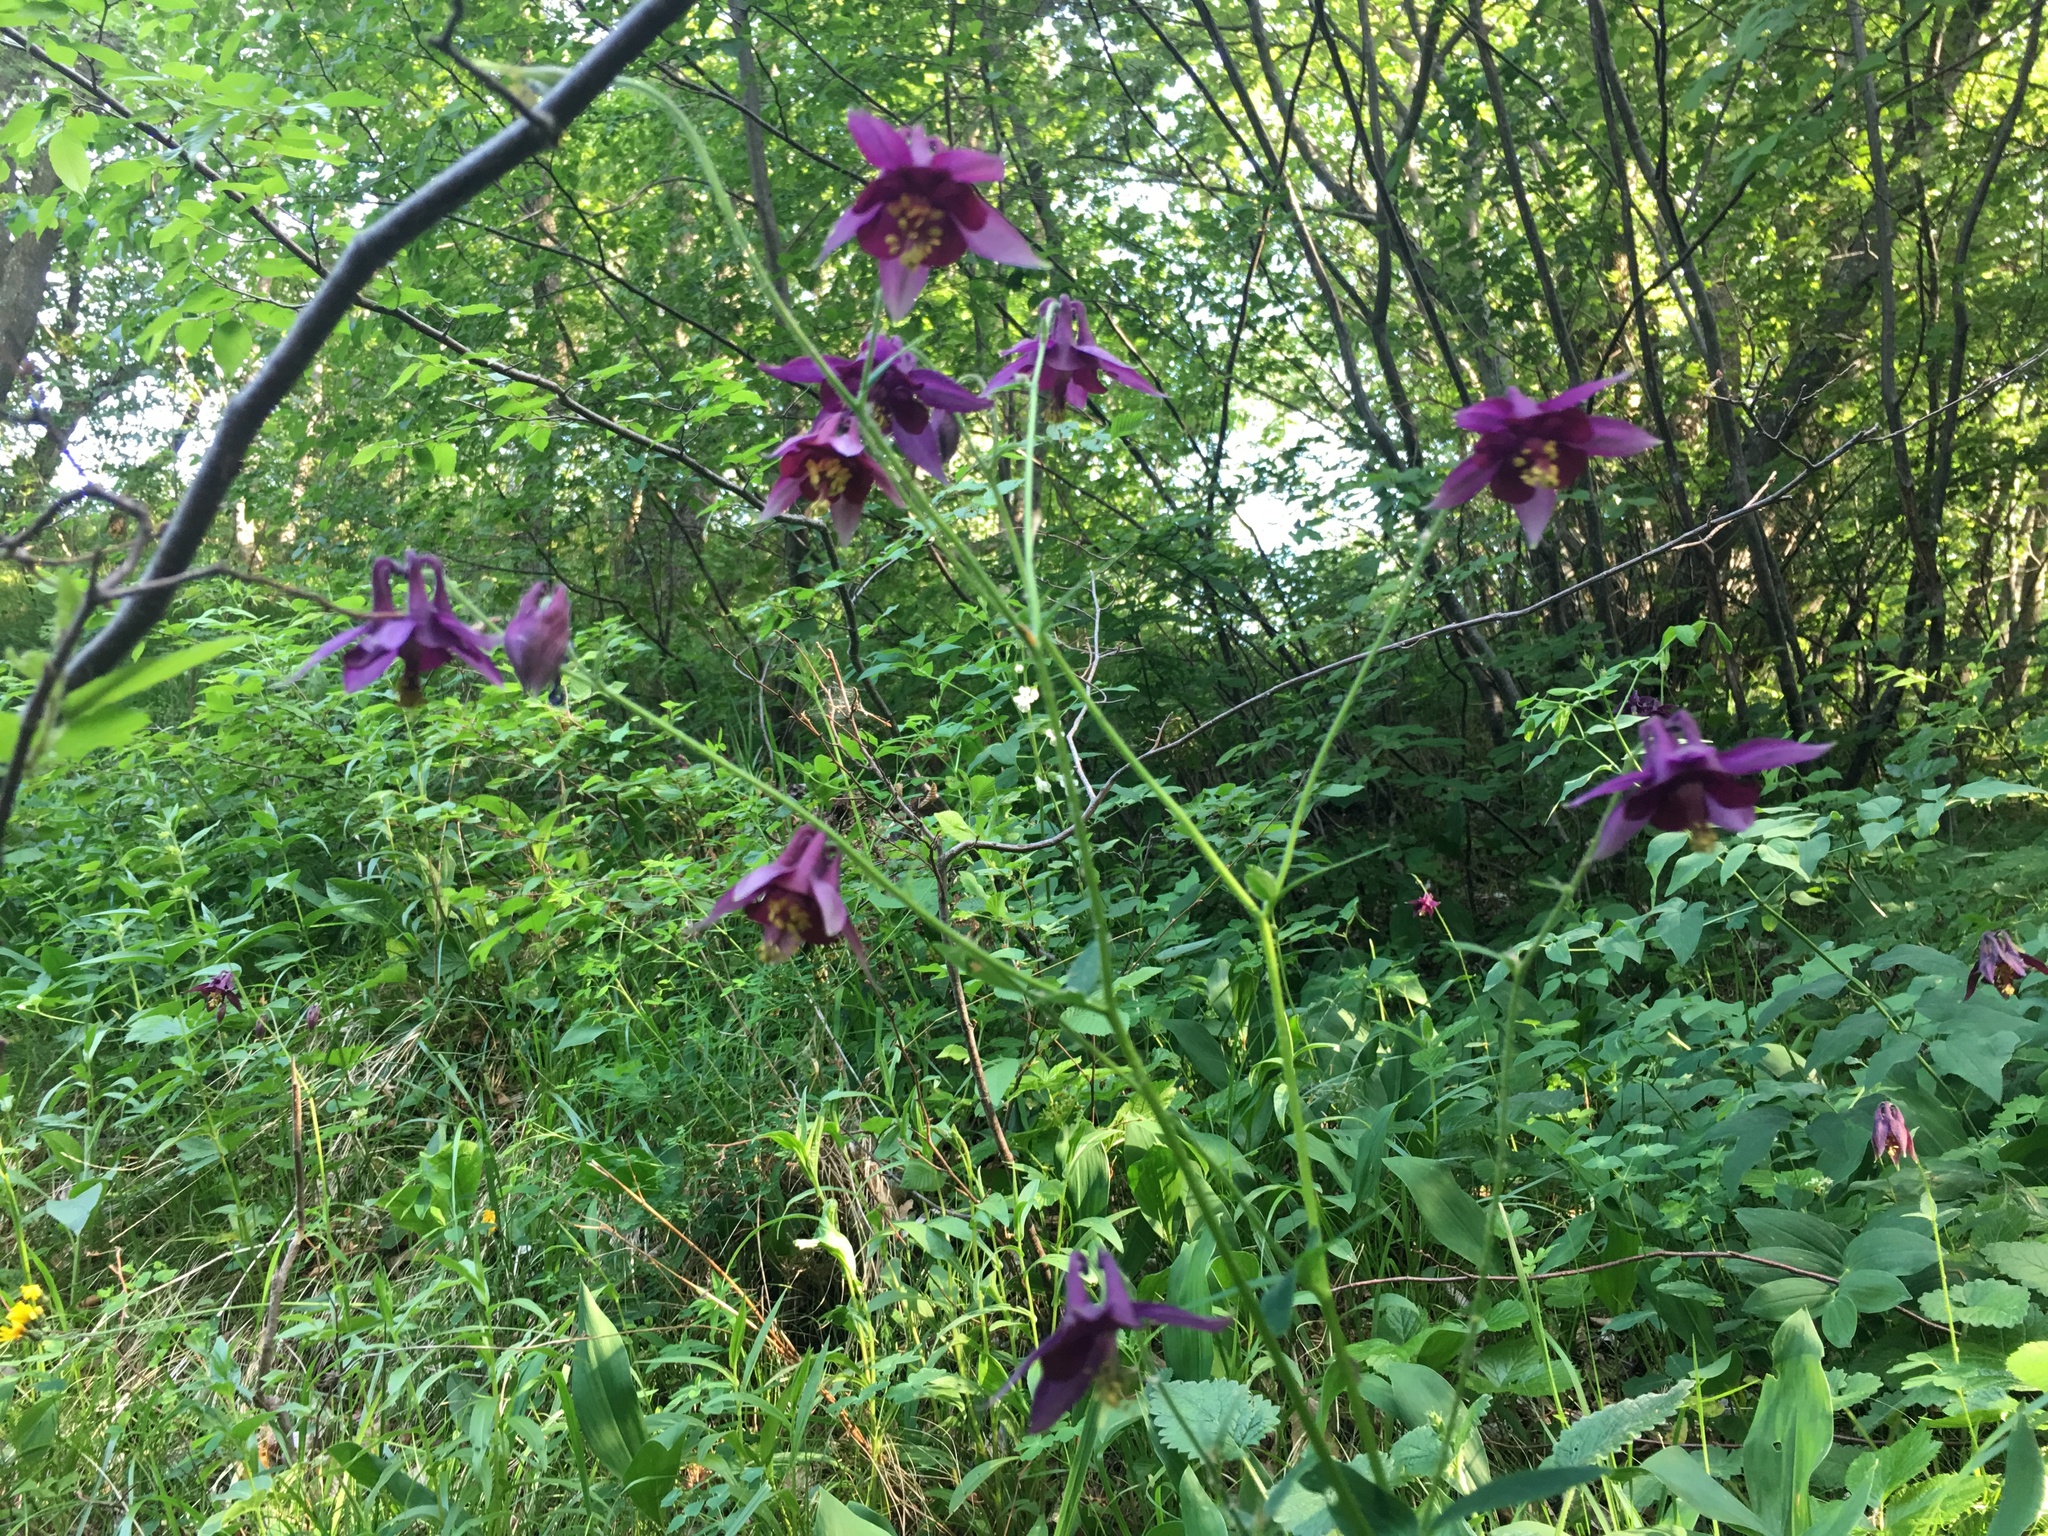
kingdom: Plantae
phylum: Tracheophyta
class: Magnoliopsida
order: Ranunculales
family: Ranunculaceae
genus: Aquilegia
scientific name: Aquilegia atrata
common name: Dark columbine
